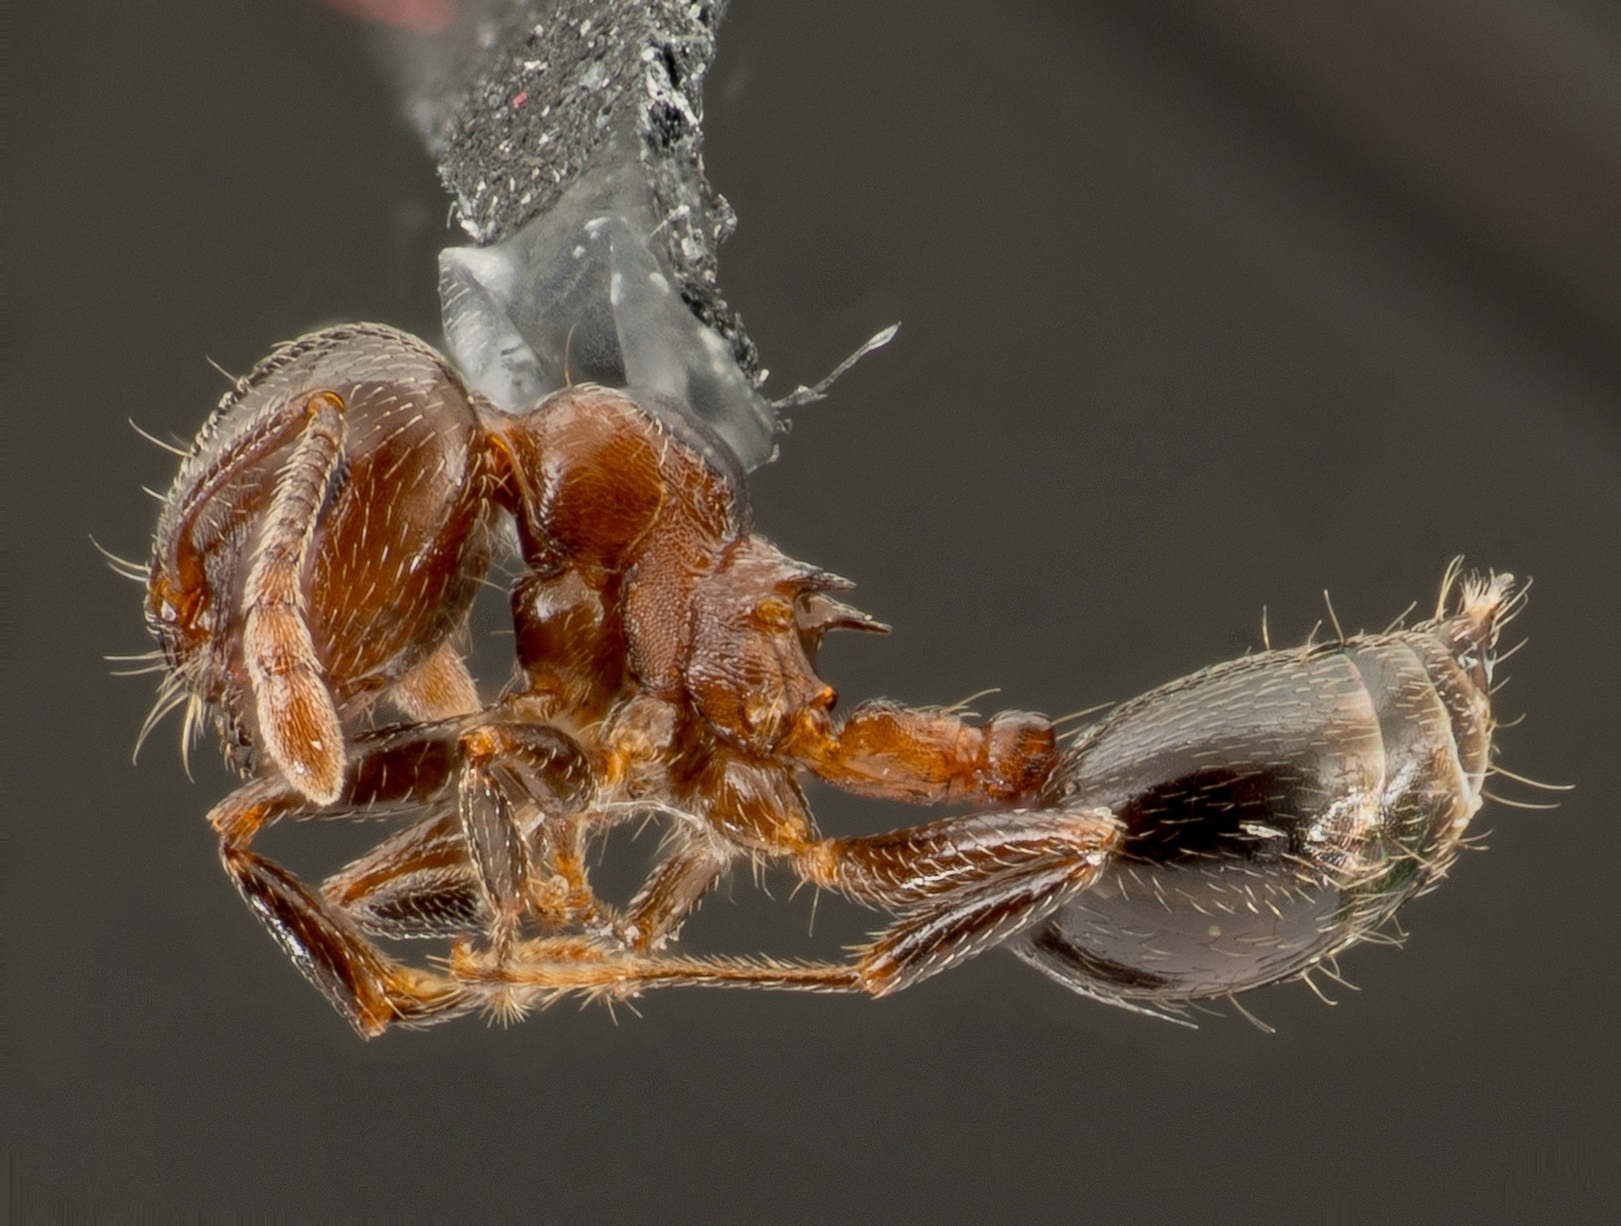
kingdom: Animalia
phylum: Arthropoda
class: Insecta
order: Hymenoptera
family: Formicidae
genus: Crematogaster
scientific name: Crematogaster ashmeadi
